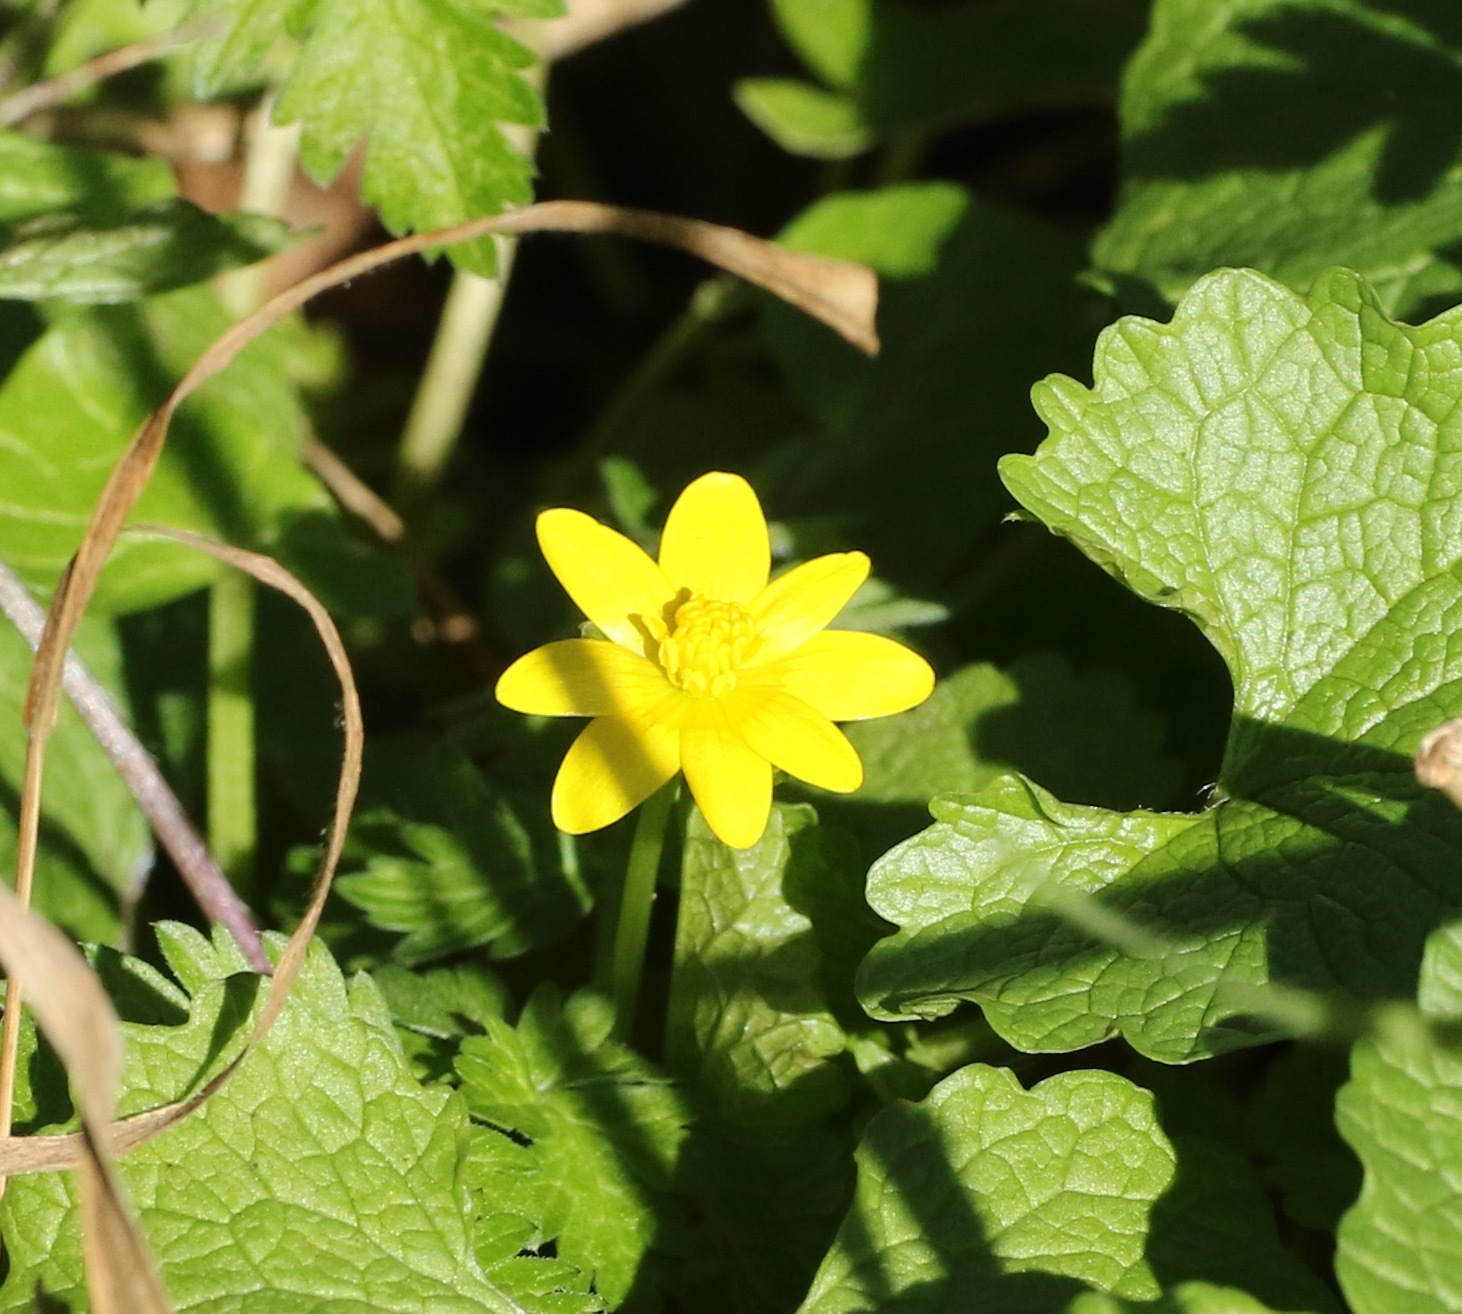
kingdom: Plantae
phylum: Tracheophyta
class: Magnoliopsida
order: Ranunculales
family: Ranunculaceae
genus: Ficaria
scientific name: Ficaria verna
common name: Lesser celandine
